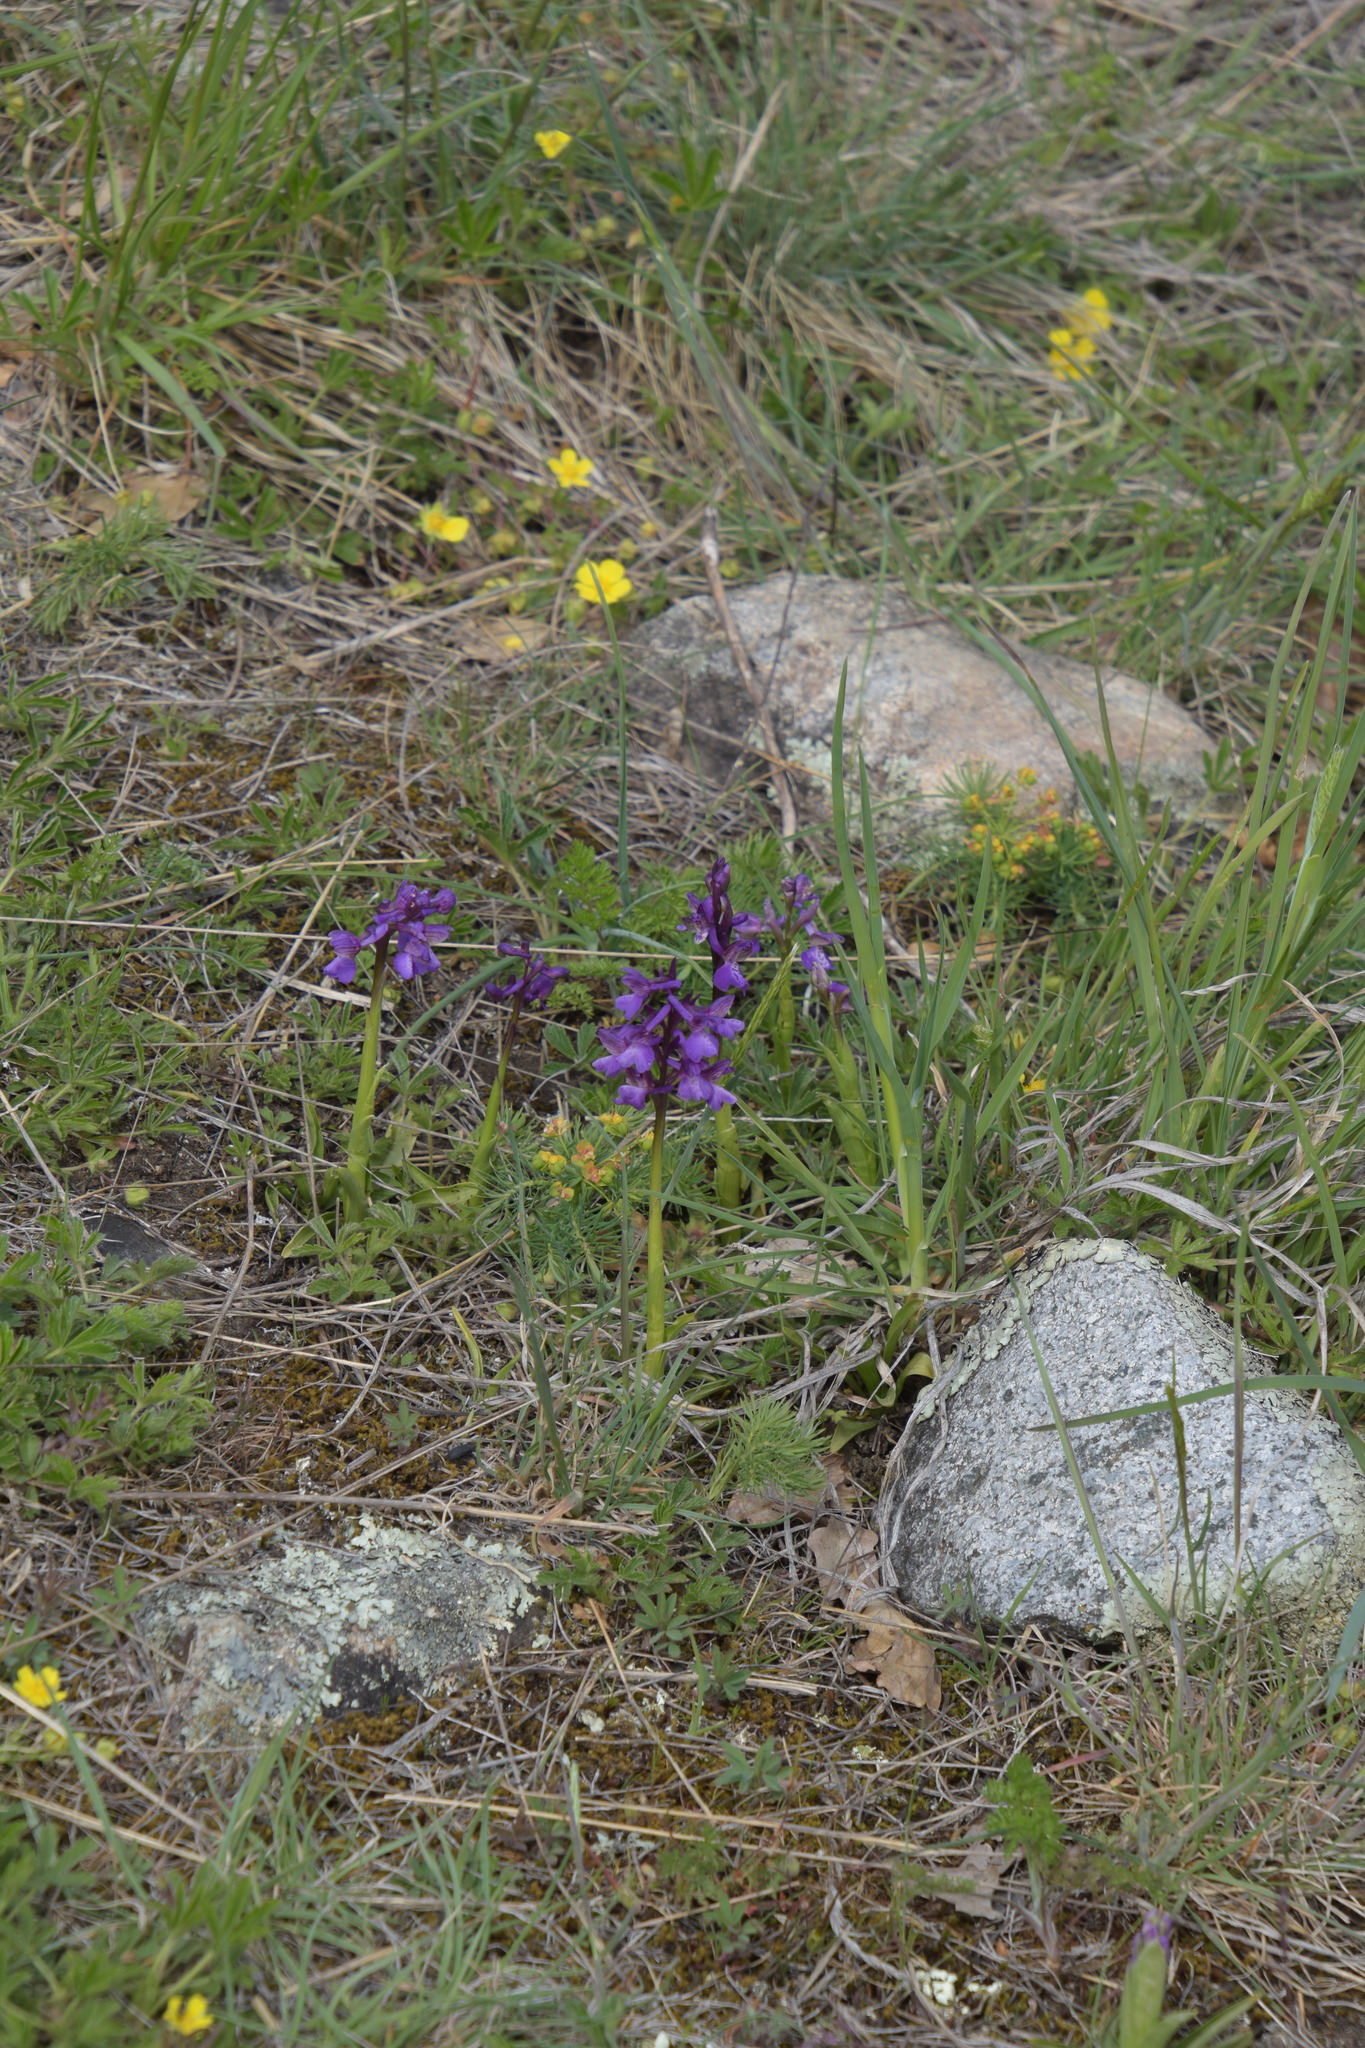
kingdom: Plantae
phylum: Tracheophyta
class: Liliopsida
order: Asparagales
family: Orchidaceae
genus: Anacamptis
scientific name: Anacamptis morio
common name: Green-winged orchid
